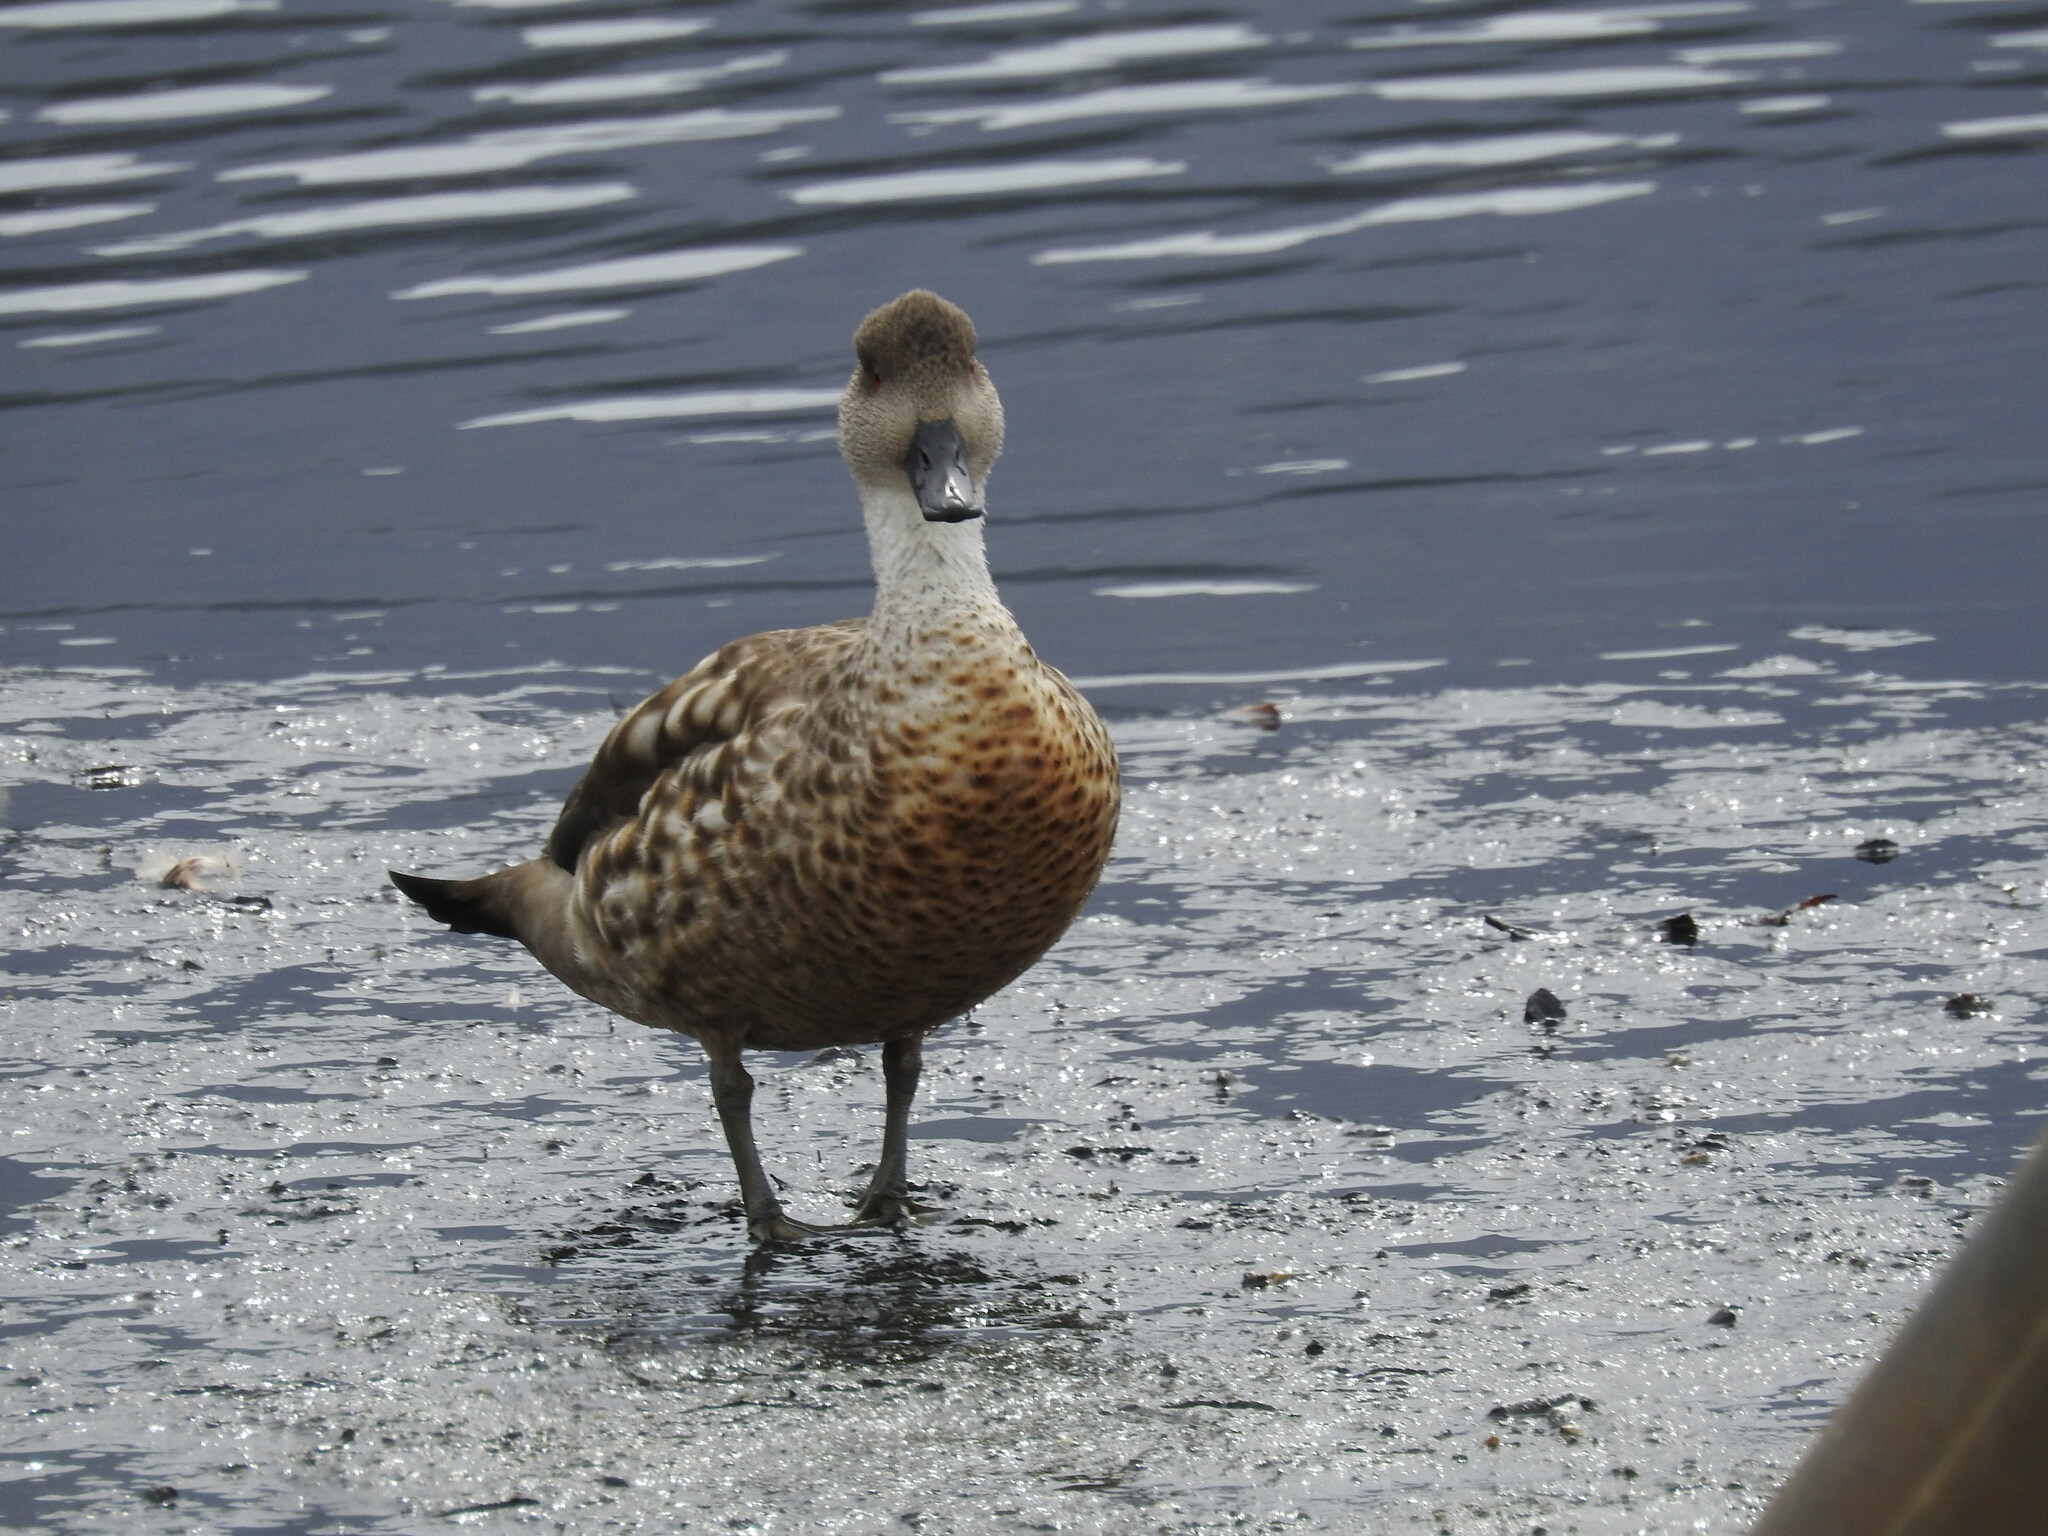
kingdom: Animalia
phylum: Chordata
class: Aves
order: Anseriformes
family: Anatidae
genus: Lophonetta
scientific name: Lophonetta specularioides
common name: Crested duck
